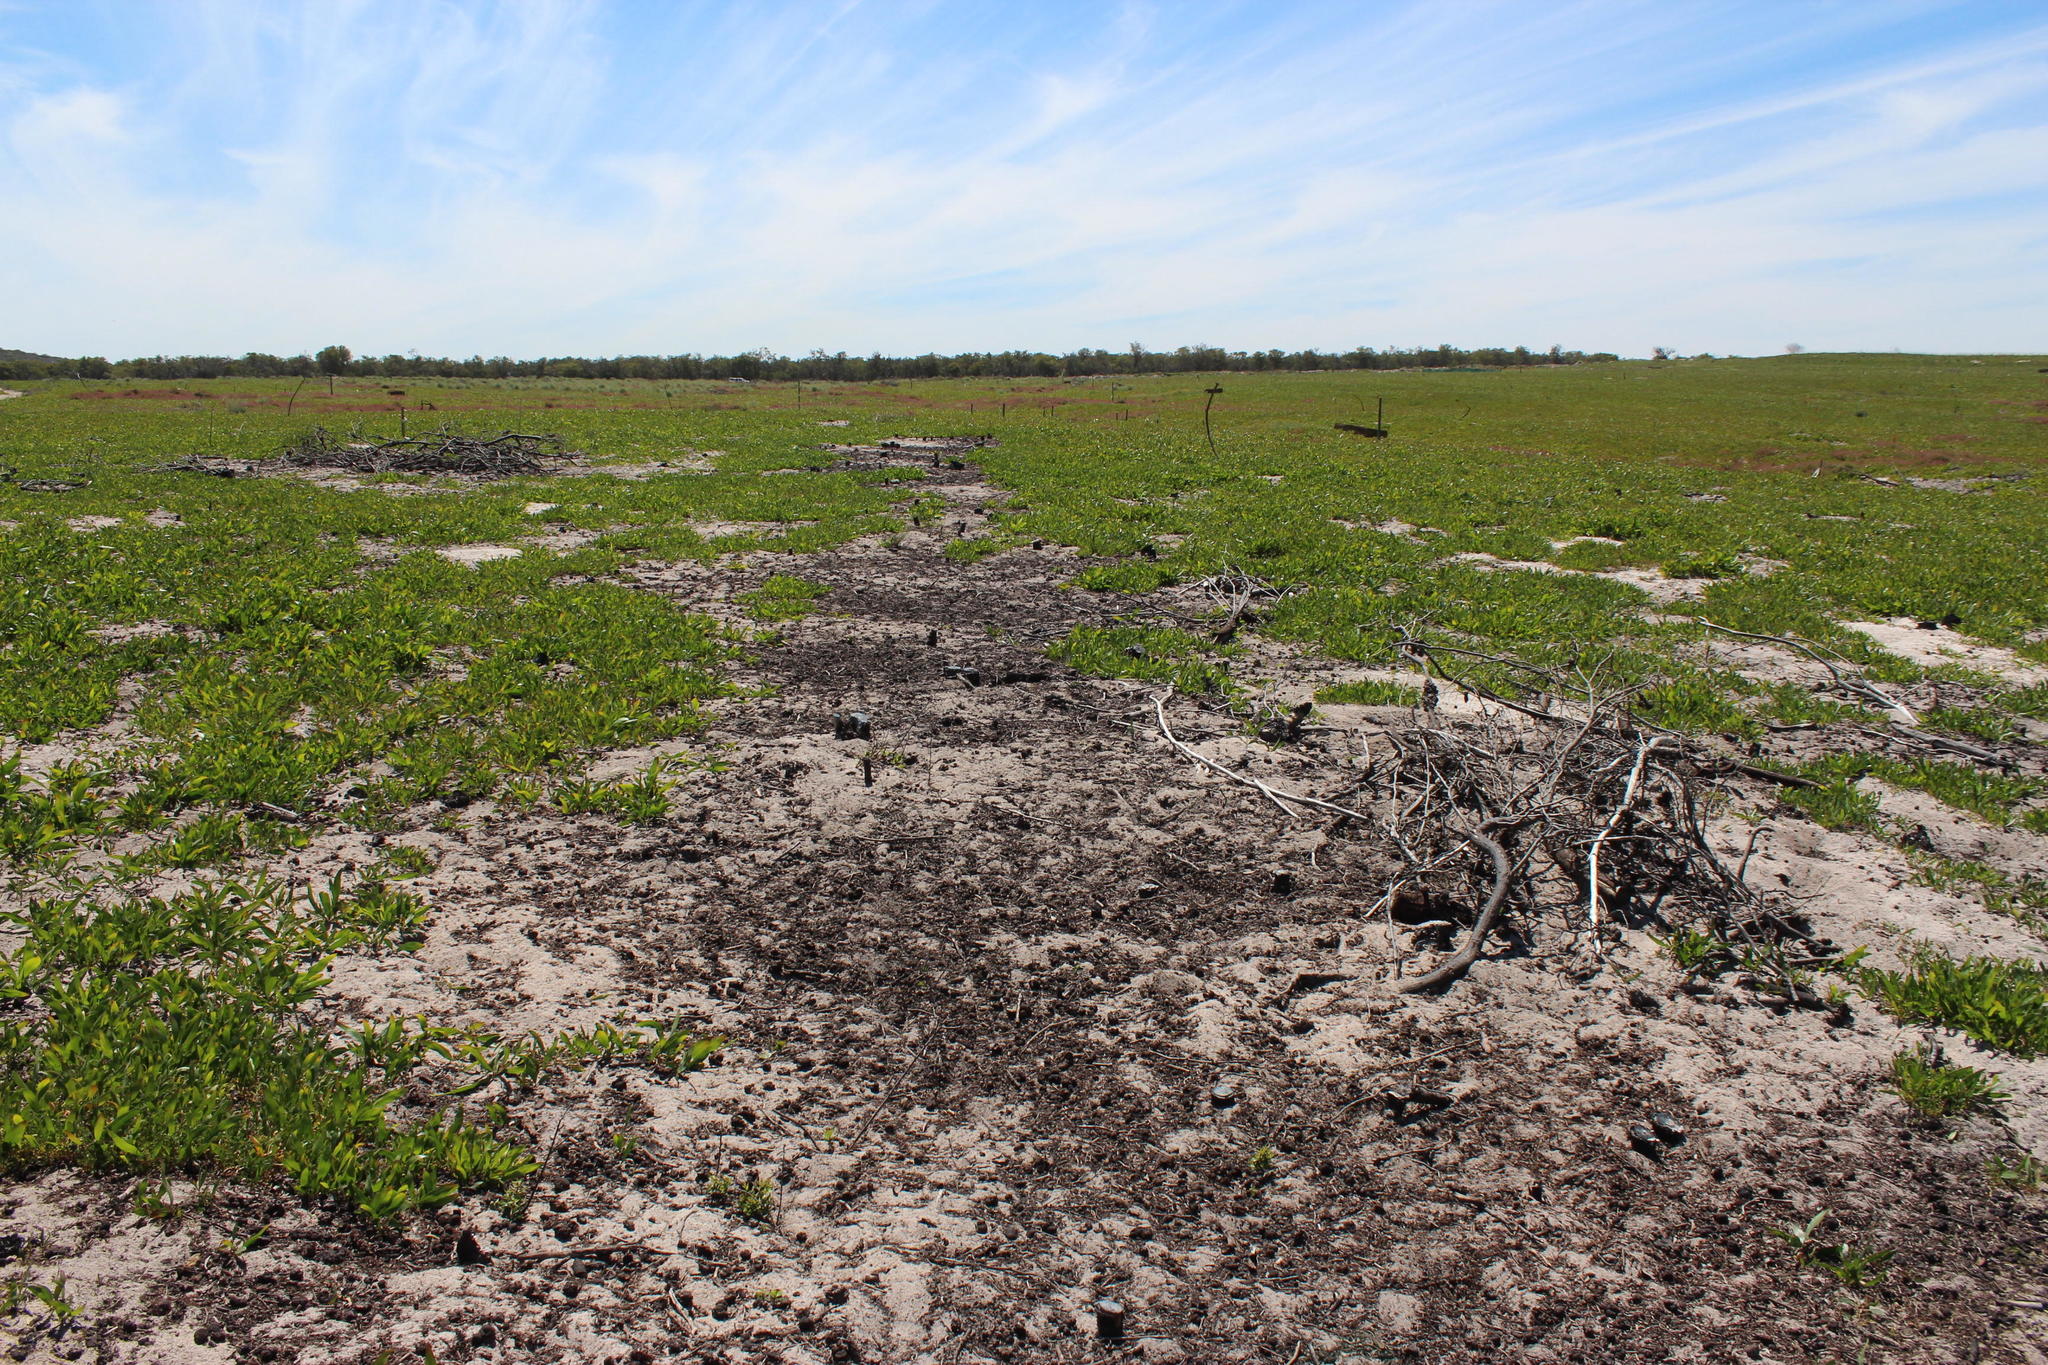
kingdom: Plantae
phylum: Tracheophyta
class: Magnoliopsida
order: Fabales
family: Fabaceae
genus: Acacia
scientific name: Acacia saligna
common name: Orange wattle
